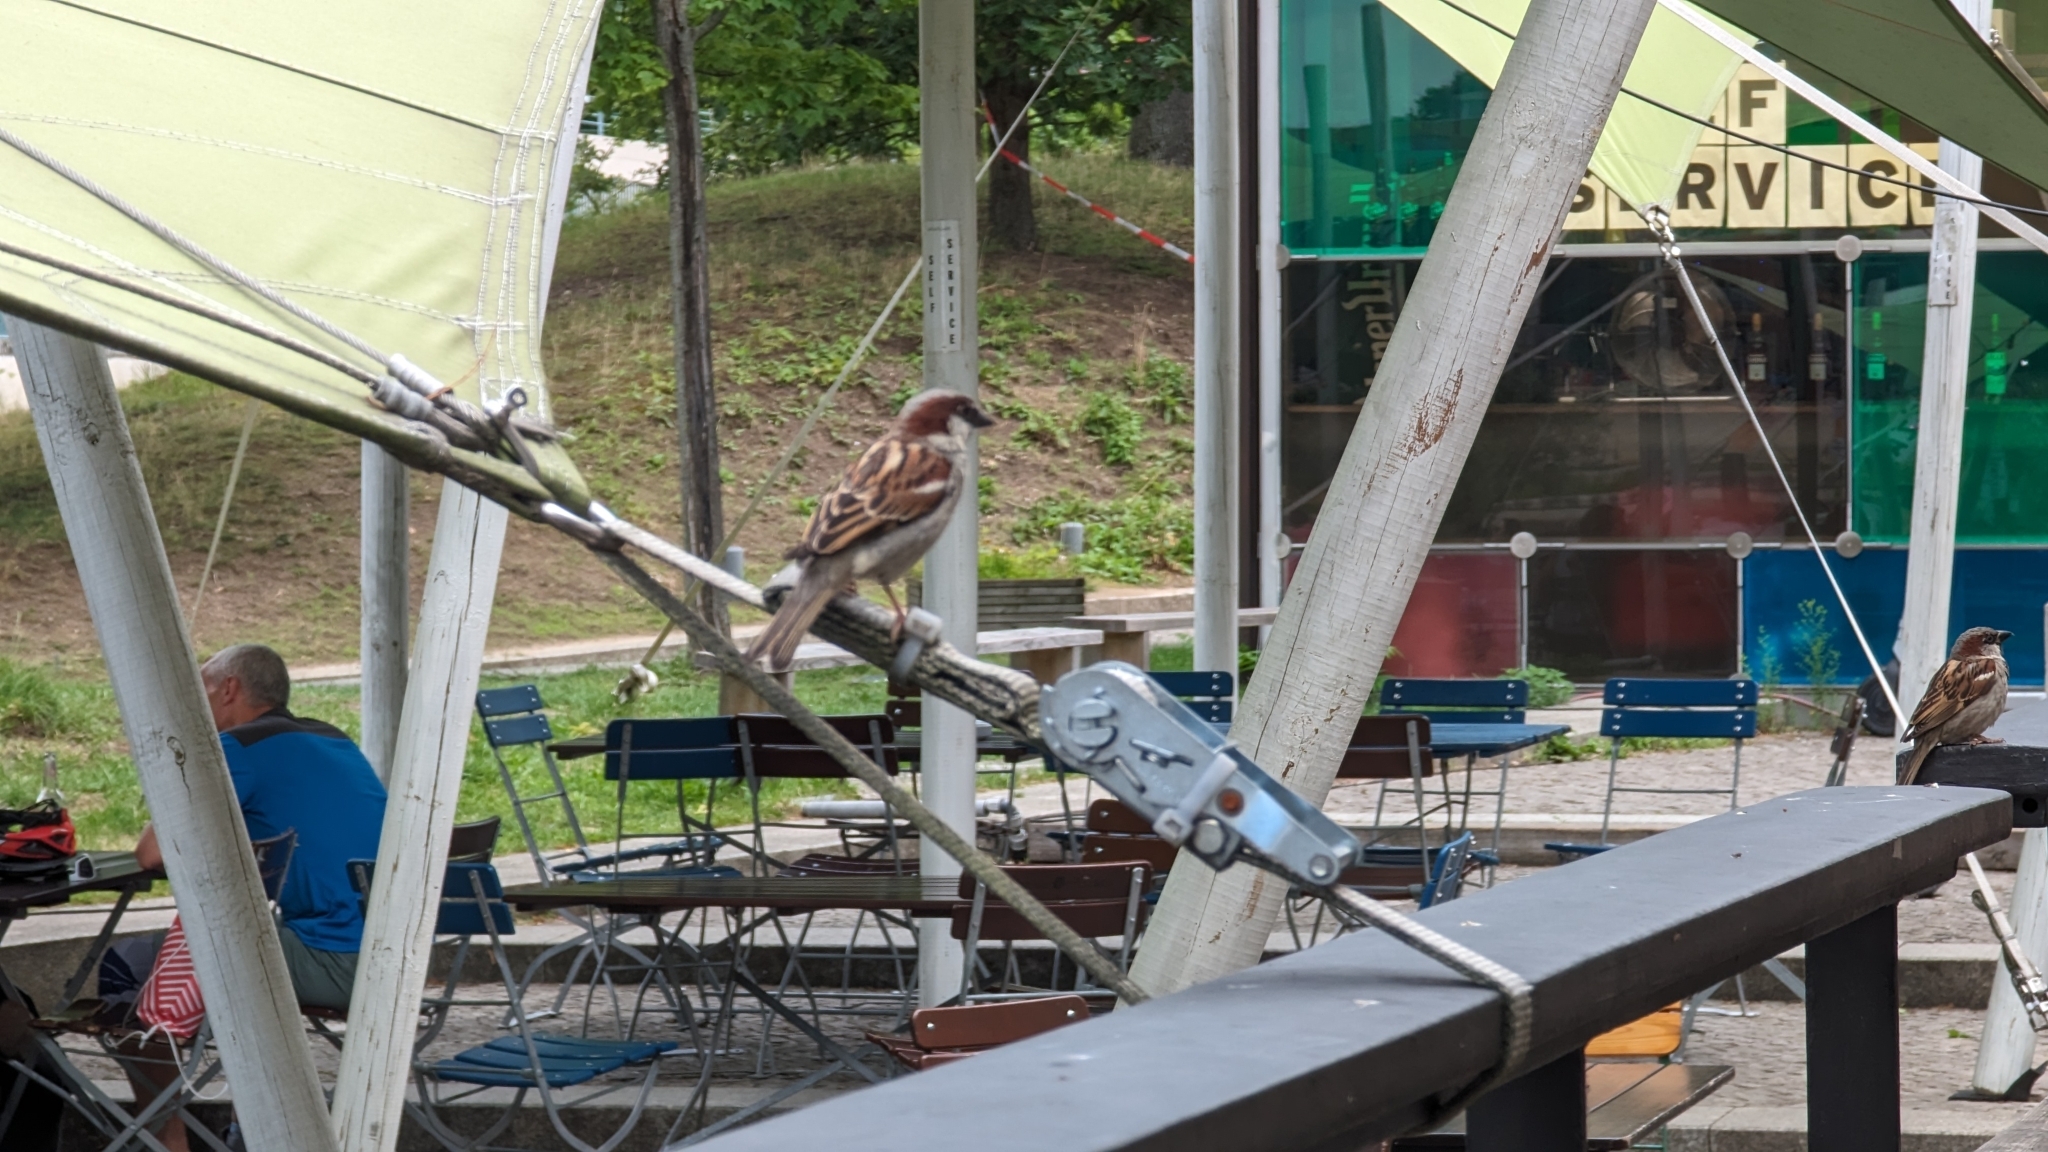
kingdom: Animalia
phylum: Chordata
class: Aves
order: Passeriformes
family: Passeridae
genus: Passer
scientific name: Passer domesticus
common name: House sparrow
